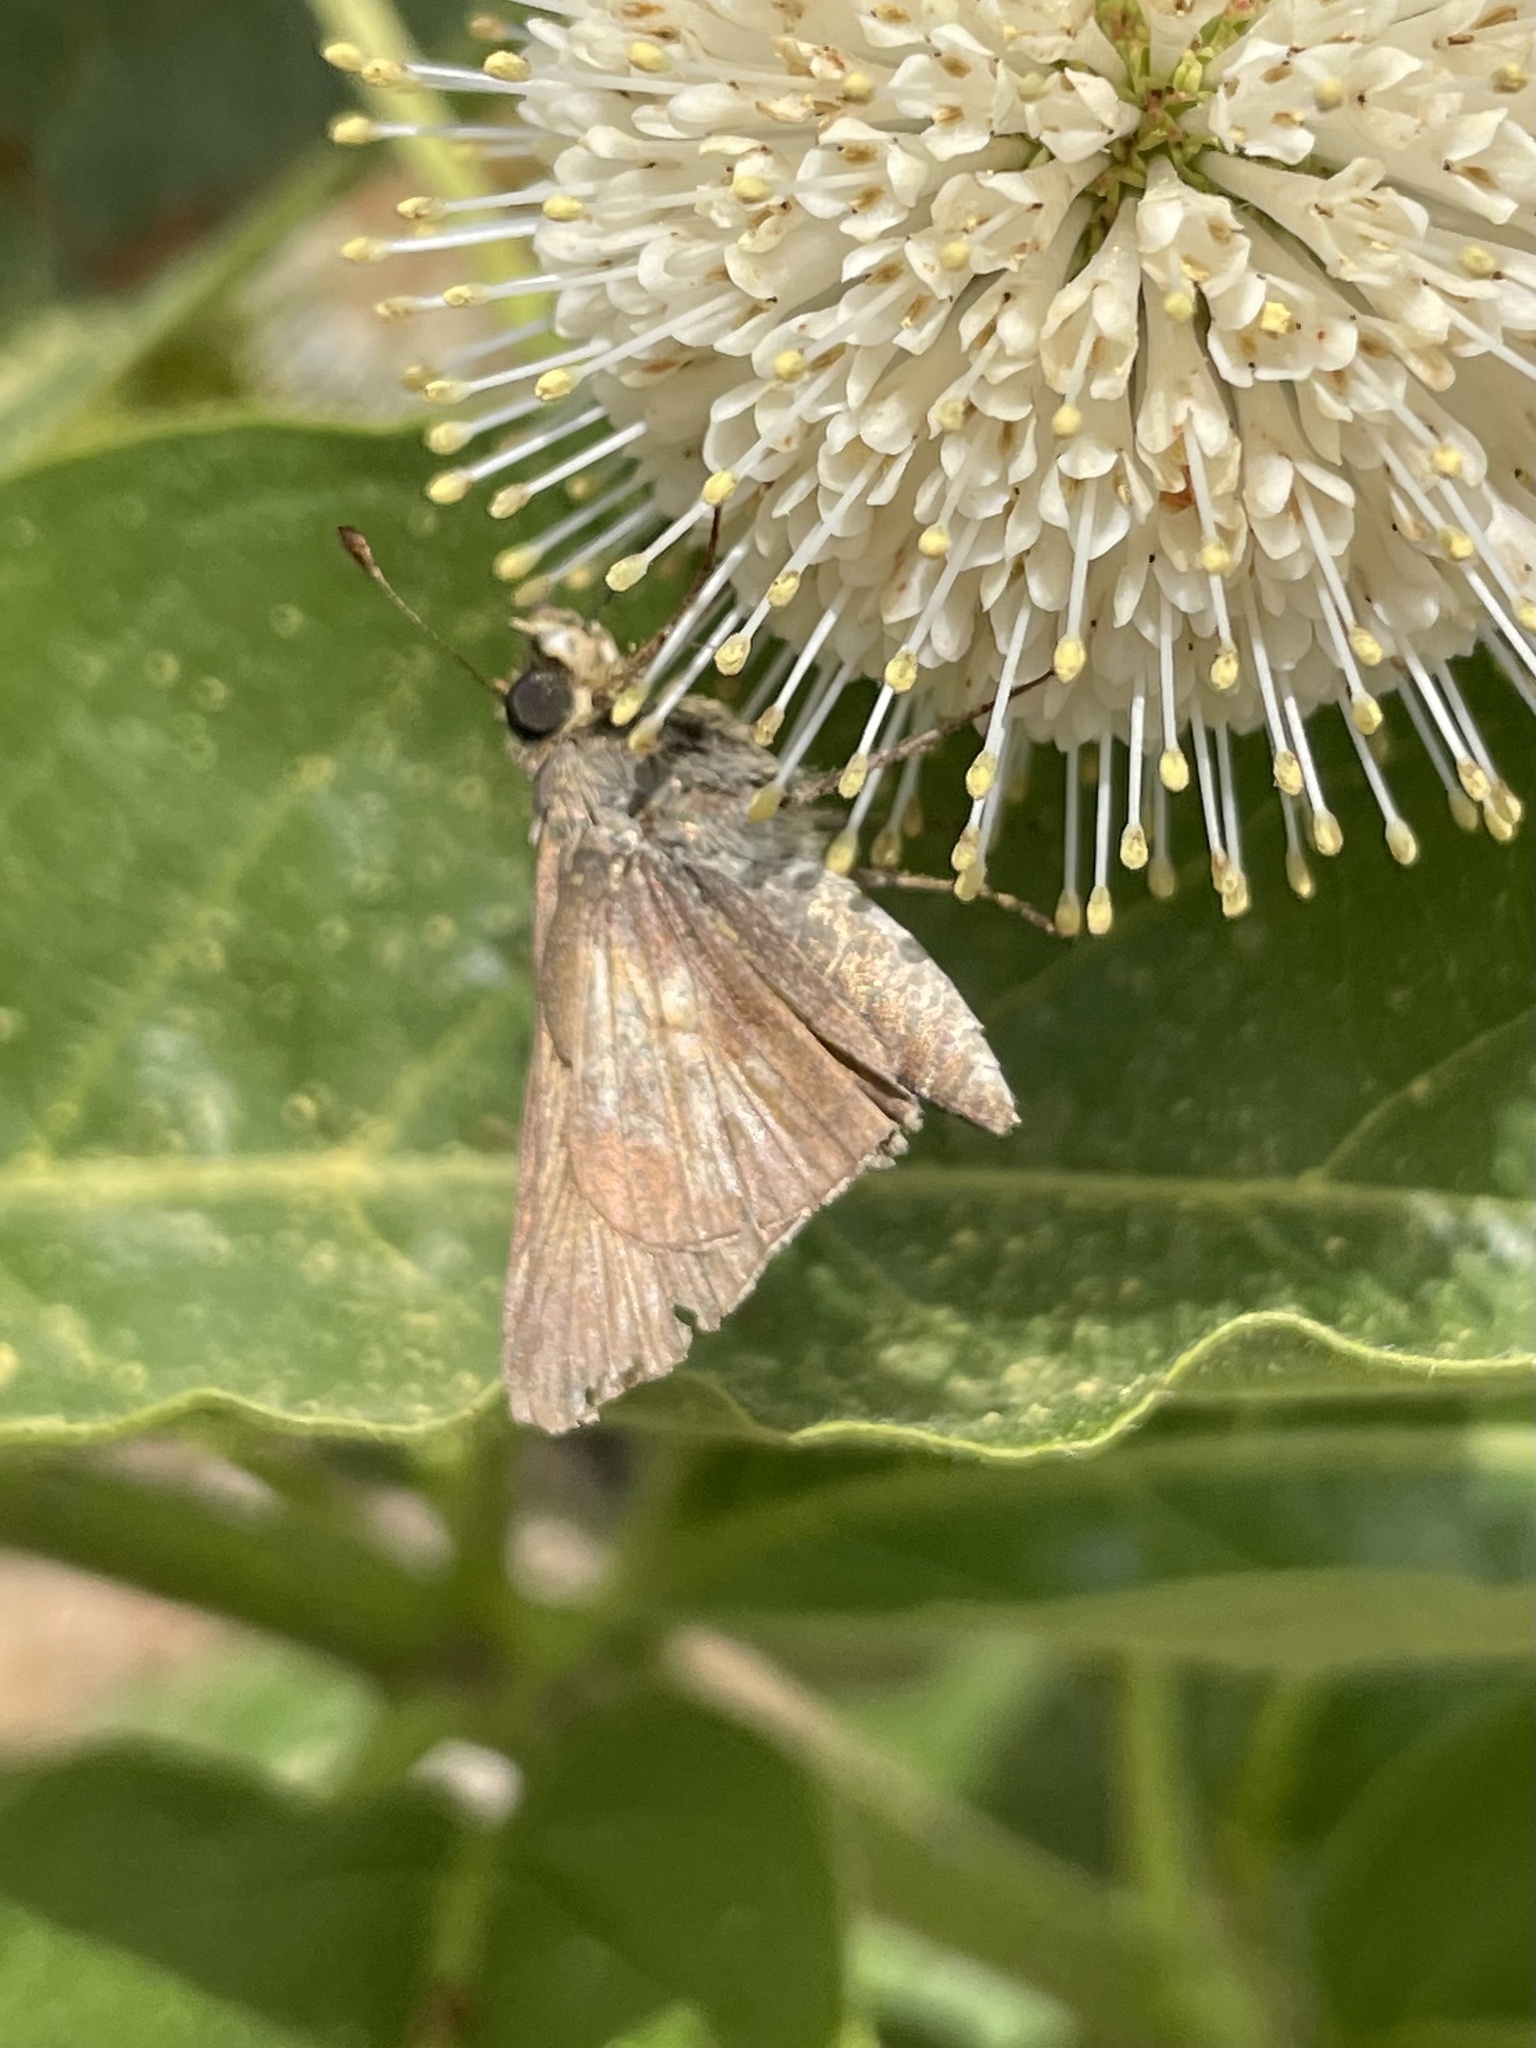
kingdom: Animalia
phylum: Arthropoda
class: Insecta
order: Lepidoptera
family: Hesperiidae
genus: Atalopedes
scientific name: Atalopedes
